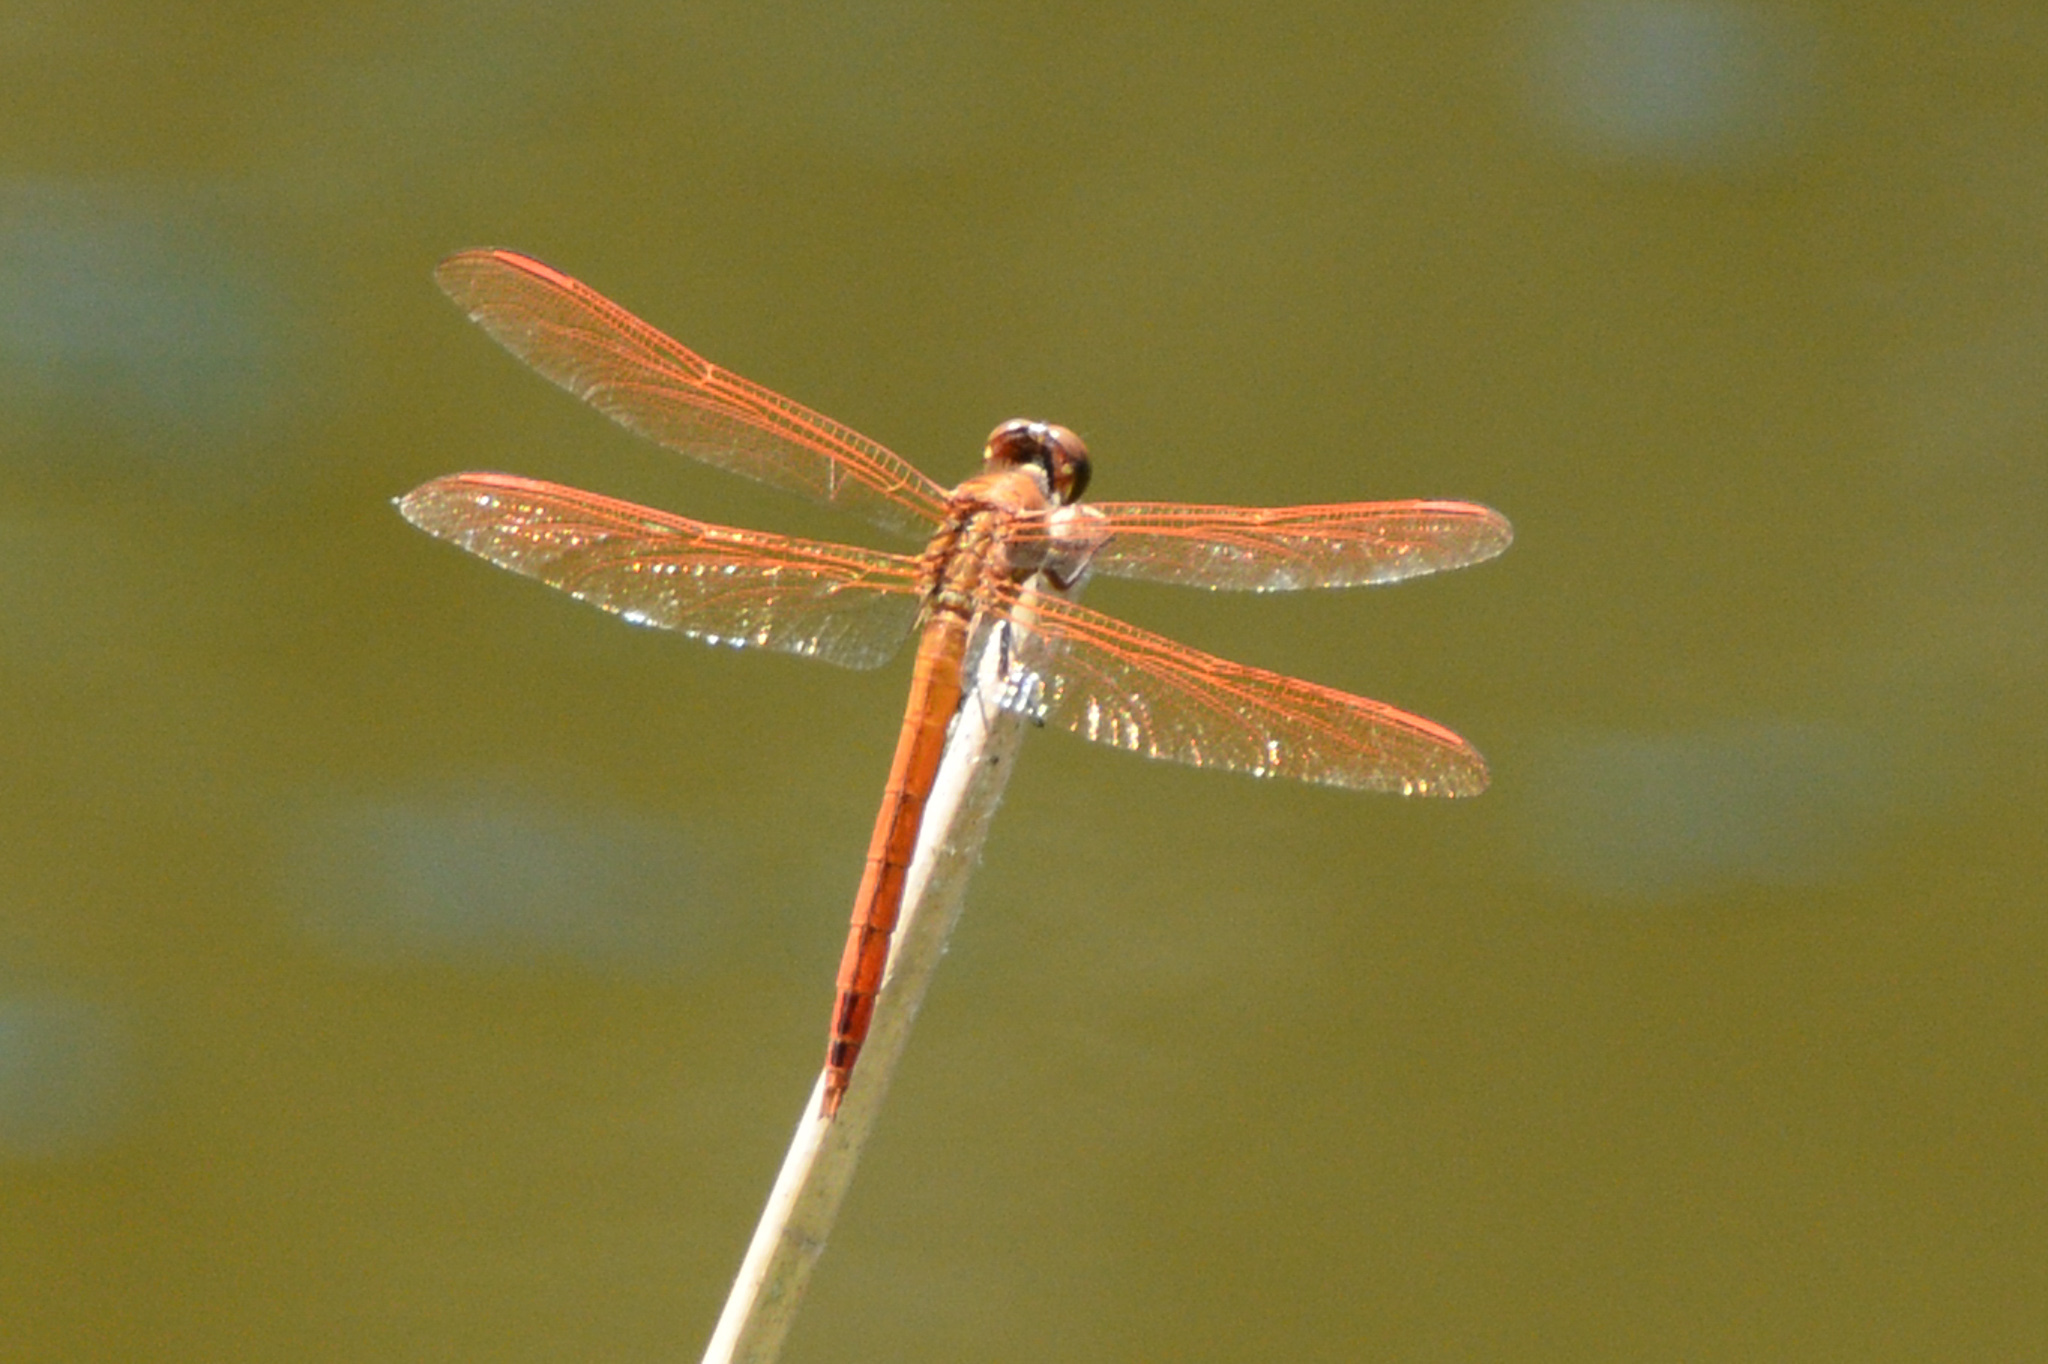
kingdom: Animalia
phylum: Arthropoda
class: Insecta
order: Odonata
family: Libellulidae
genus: Libellula
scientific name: Libellula auripennis
